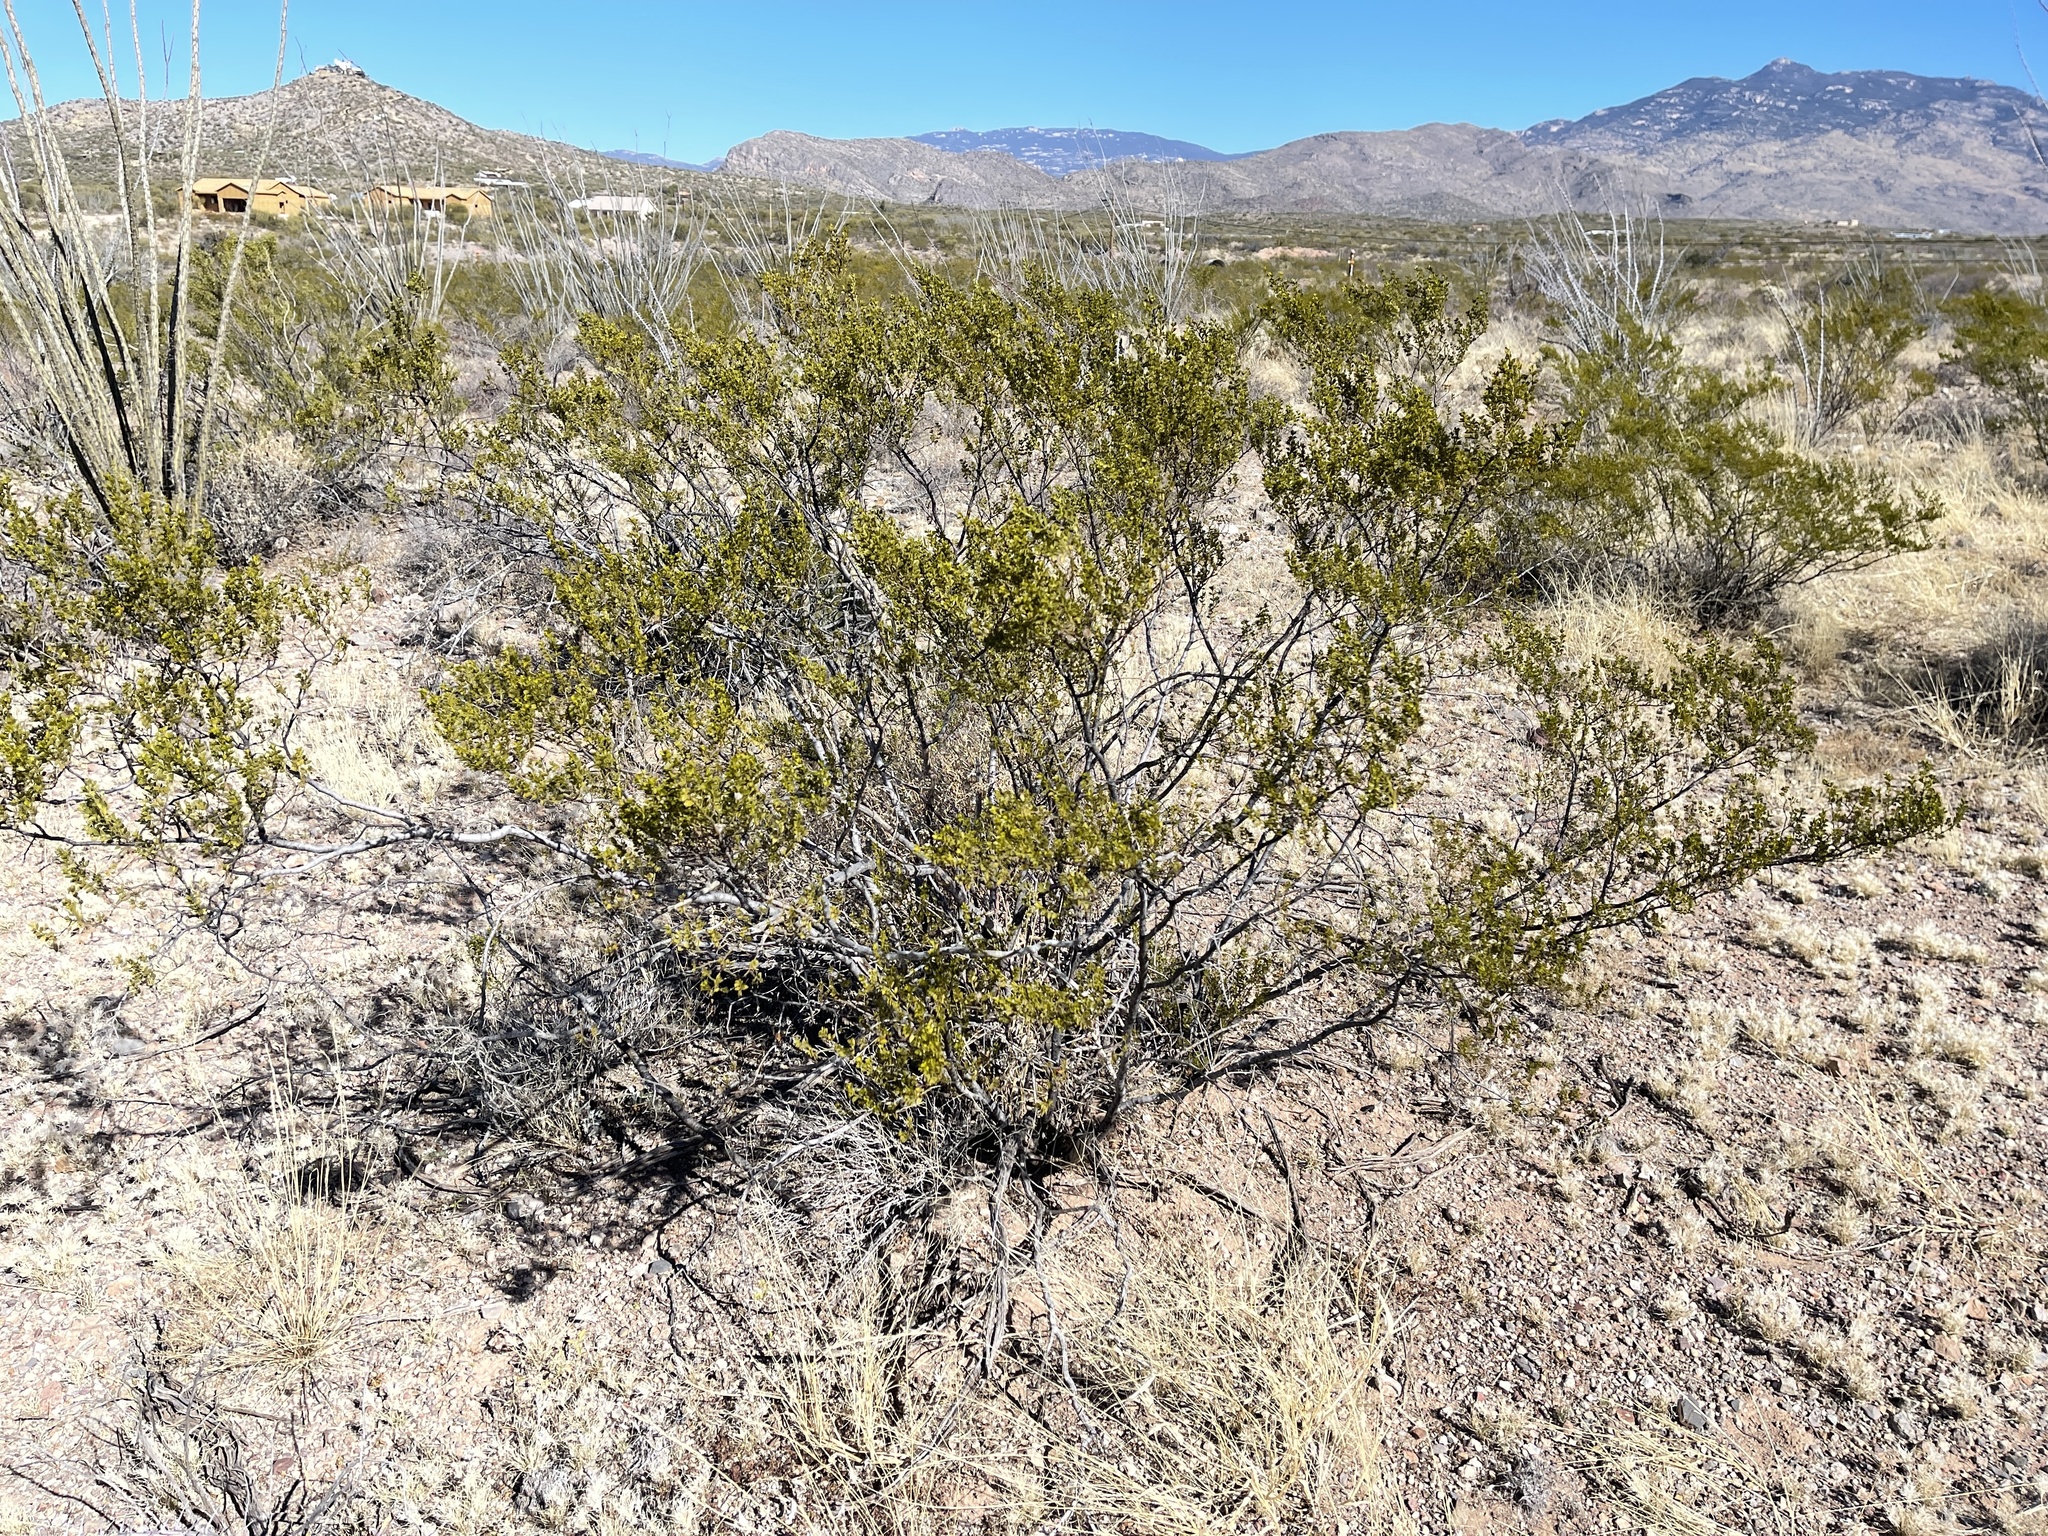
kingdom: Plantae
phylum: Tracheophyta
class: Magnoliopsida
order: Zygophyllales
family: Zygophyllaceae
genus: Larrea
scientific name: Larrea tridentata
